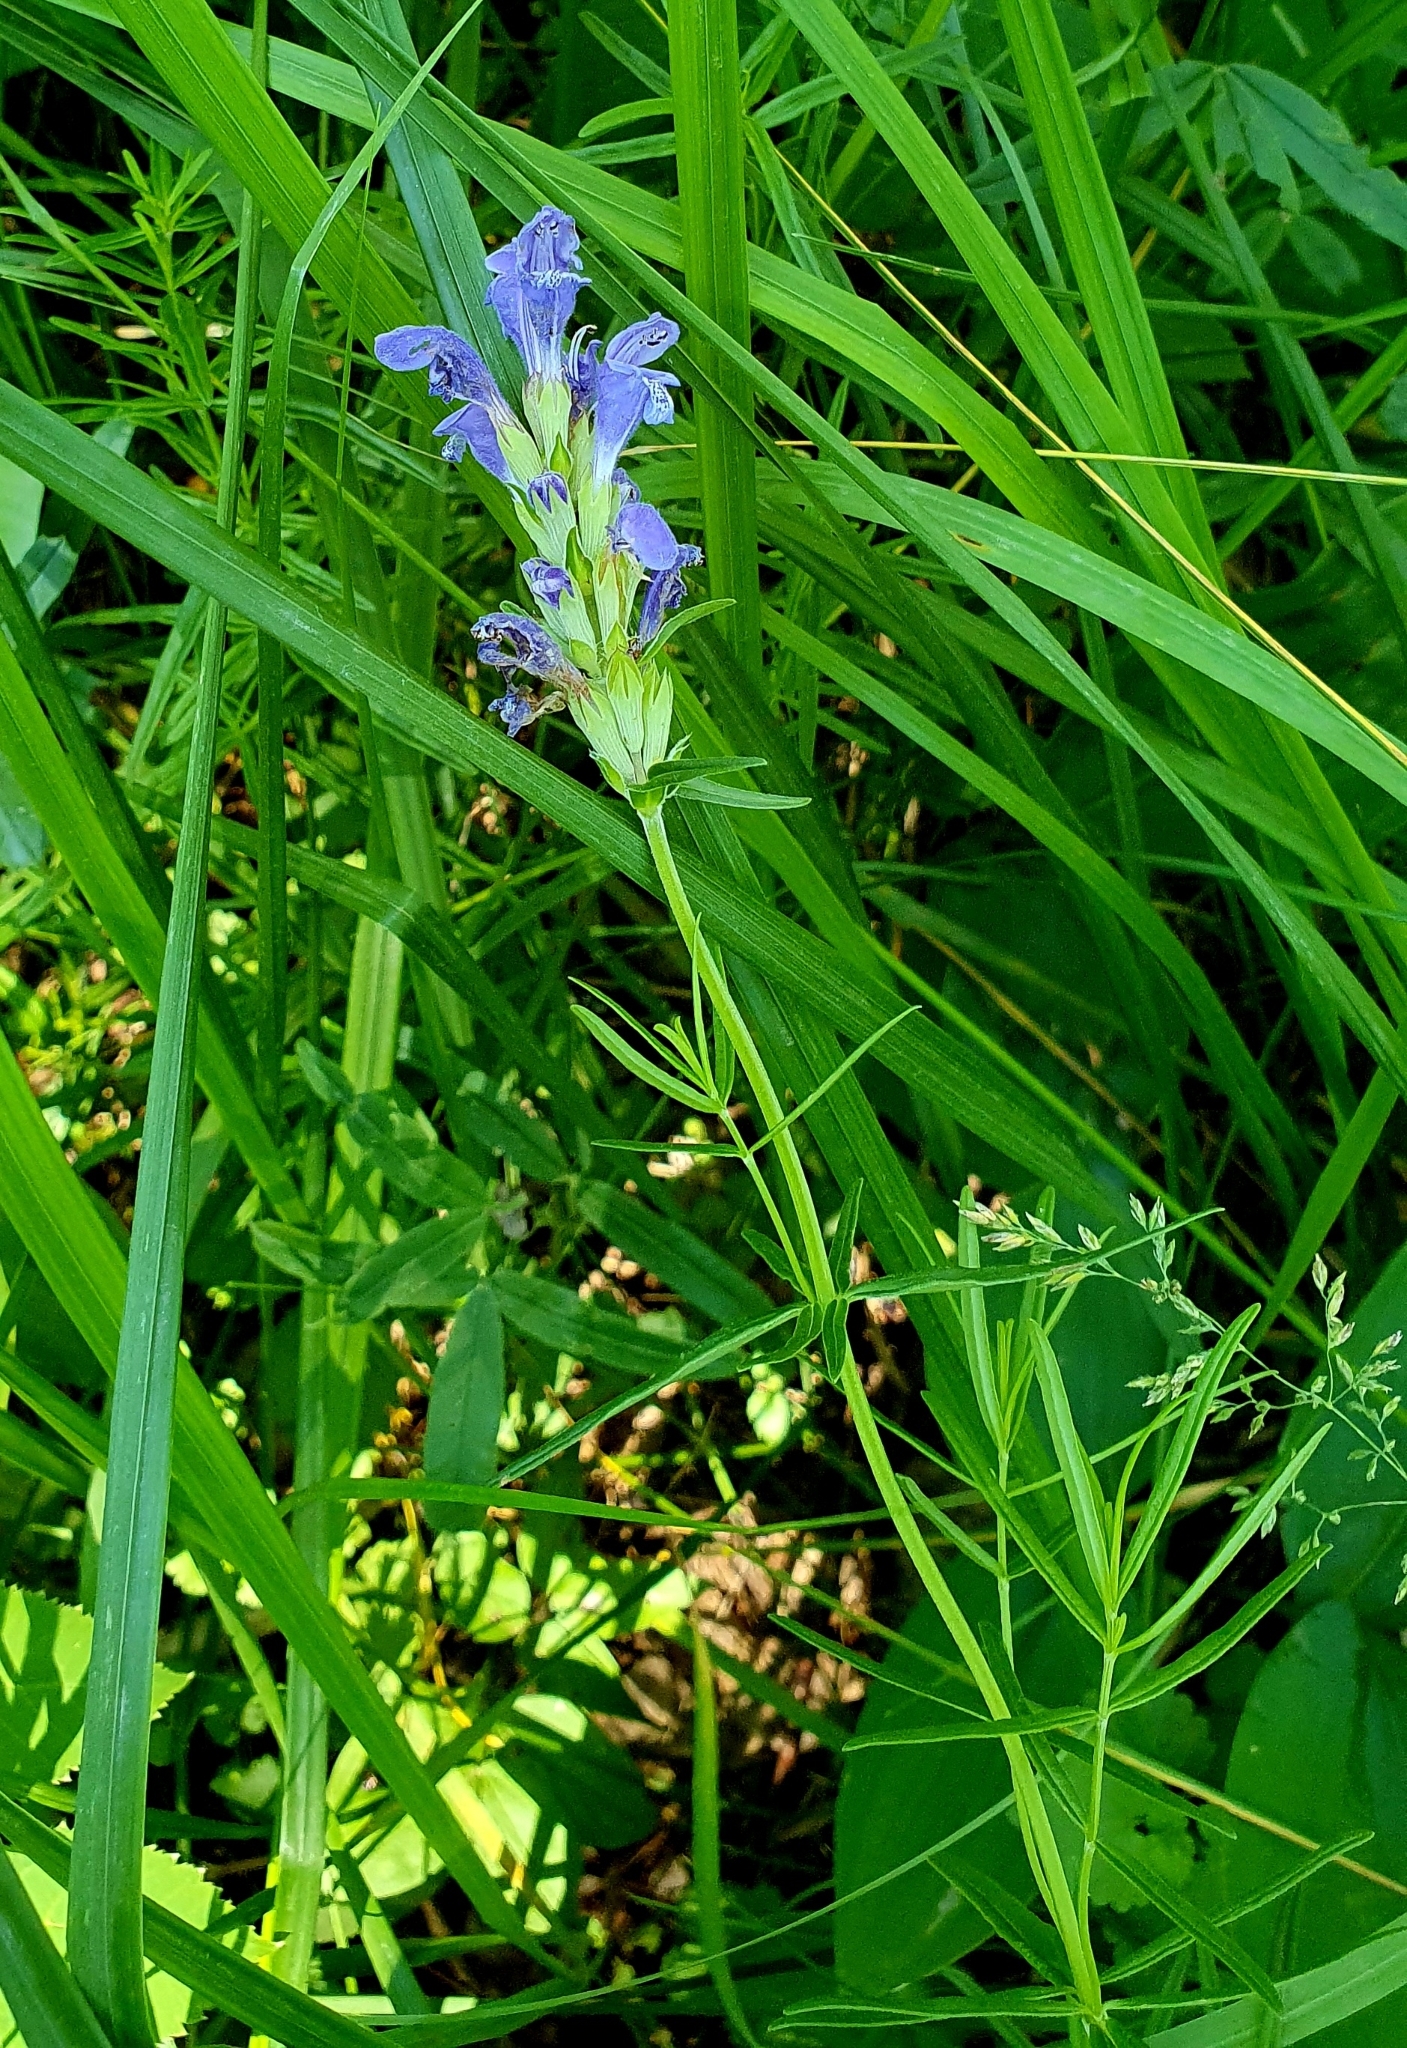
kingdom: Plantae
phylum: Tracheophyta
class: Magnoliopsida
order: Lamiales
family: Lamiaceae
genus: Dracocephalum
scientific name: Dracocephalum ruyschiana
